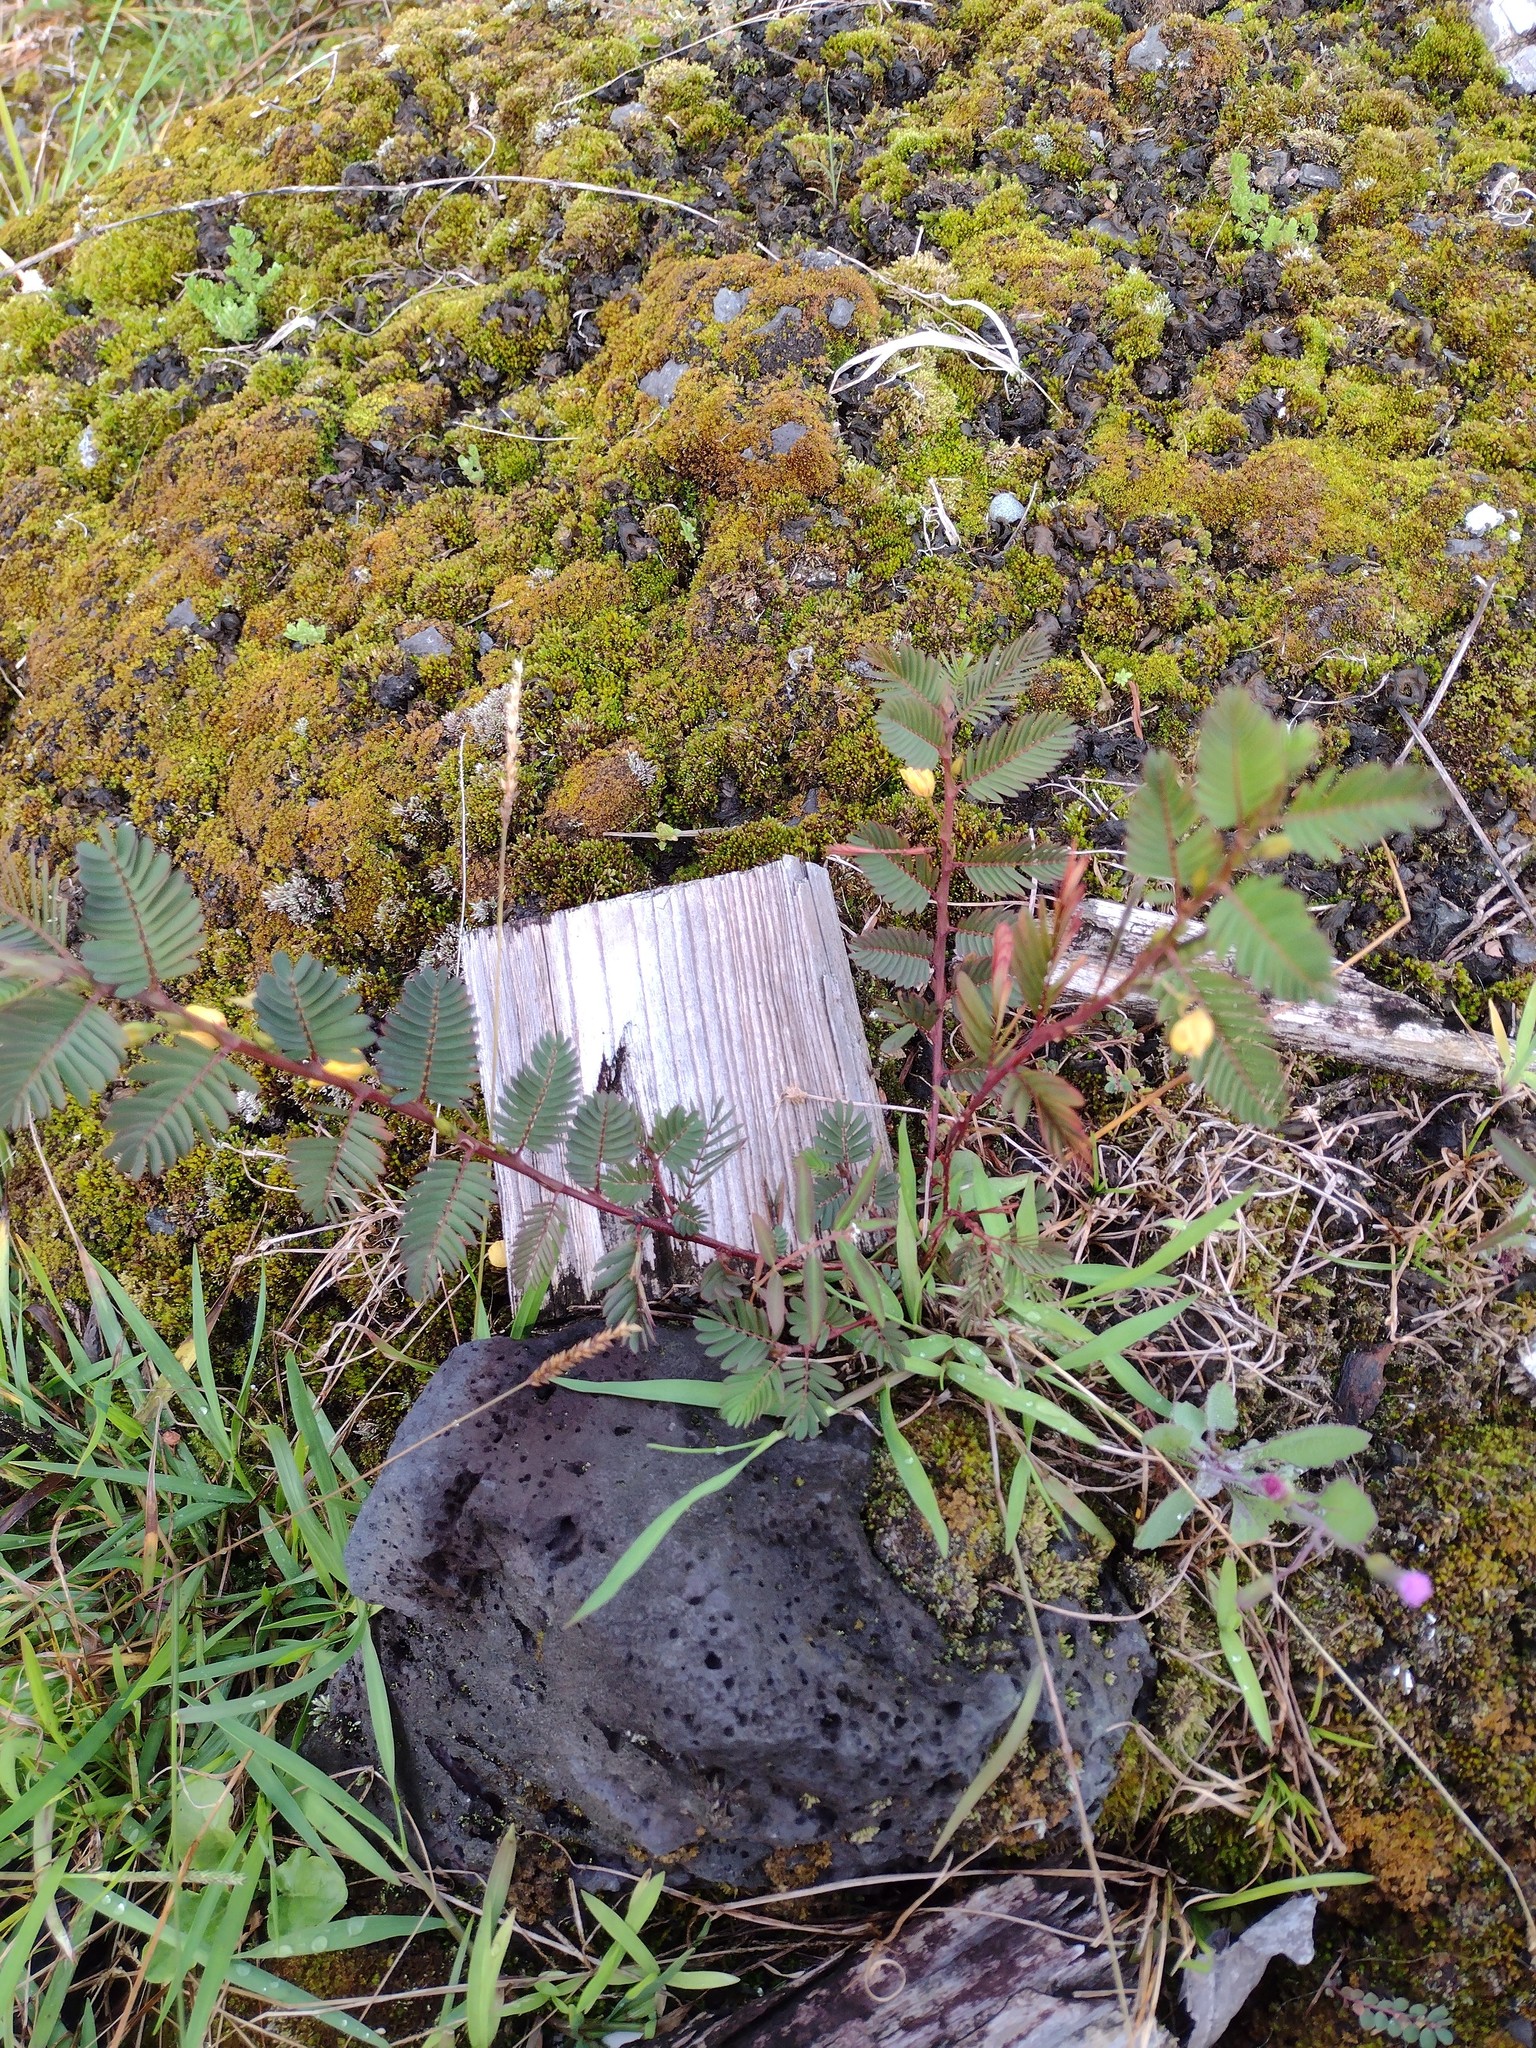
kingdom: Plantae
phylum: Tracheophyta
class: Magnoliopsida
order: Fabales
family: Fabaceae
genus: Chamaecrista
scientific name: Chamaecrista nictitans
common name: Sensitive cassia
